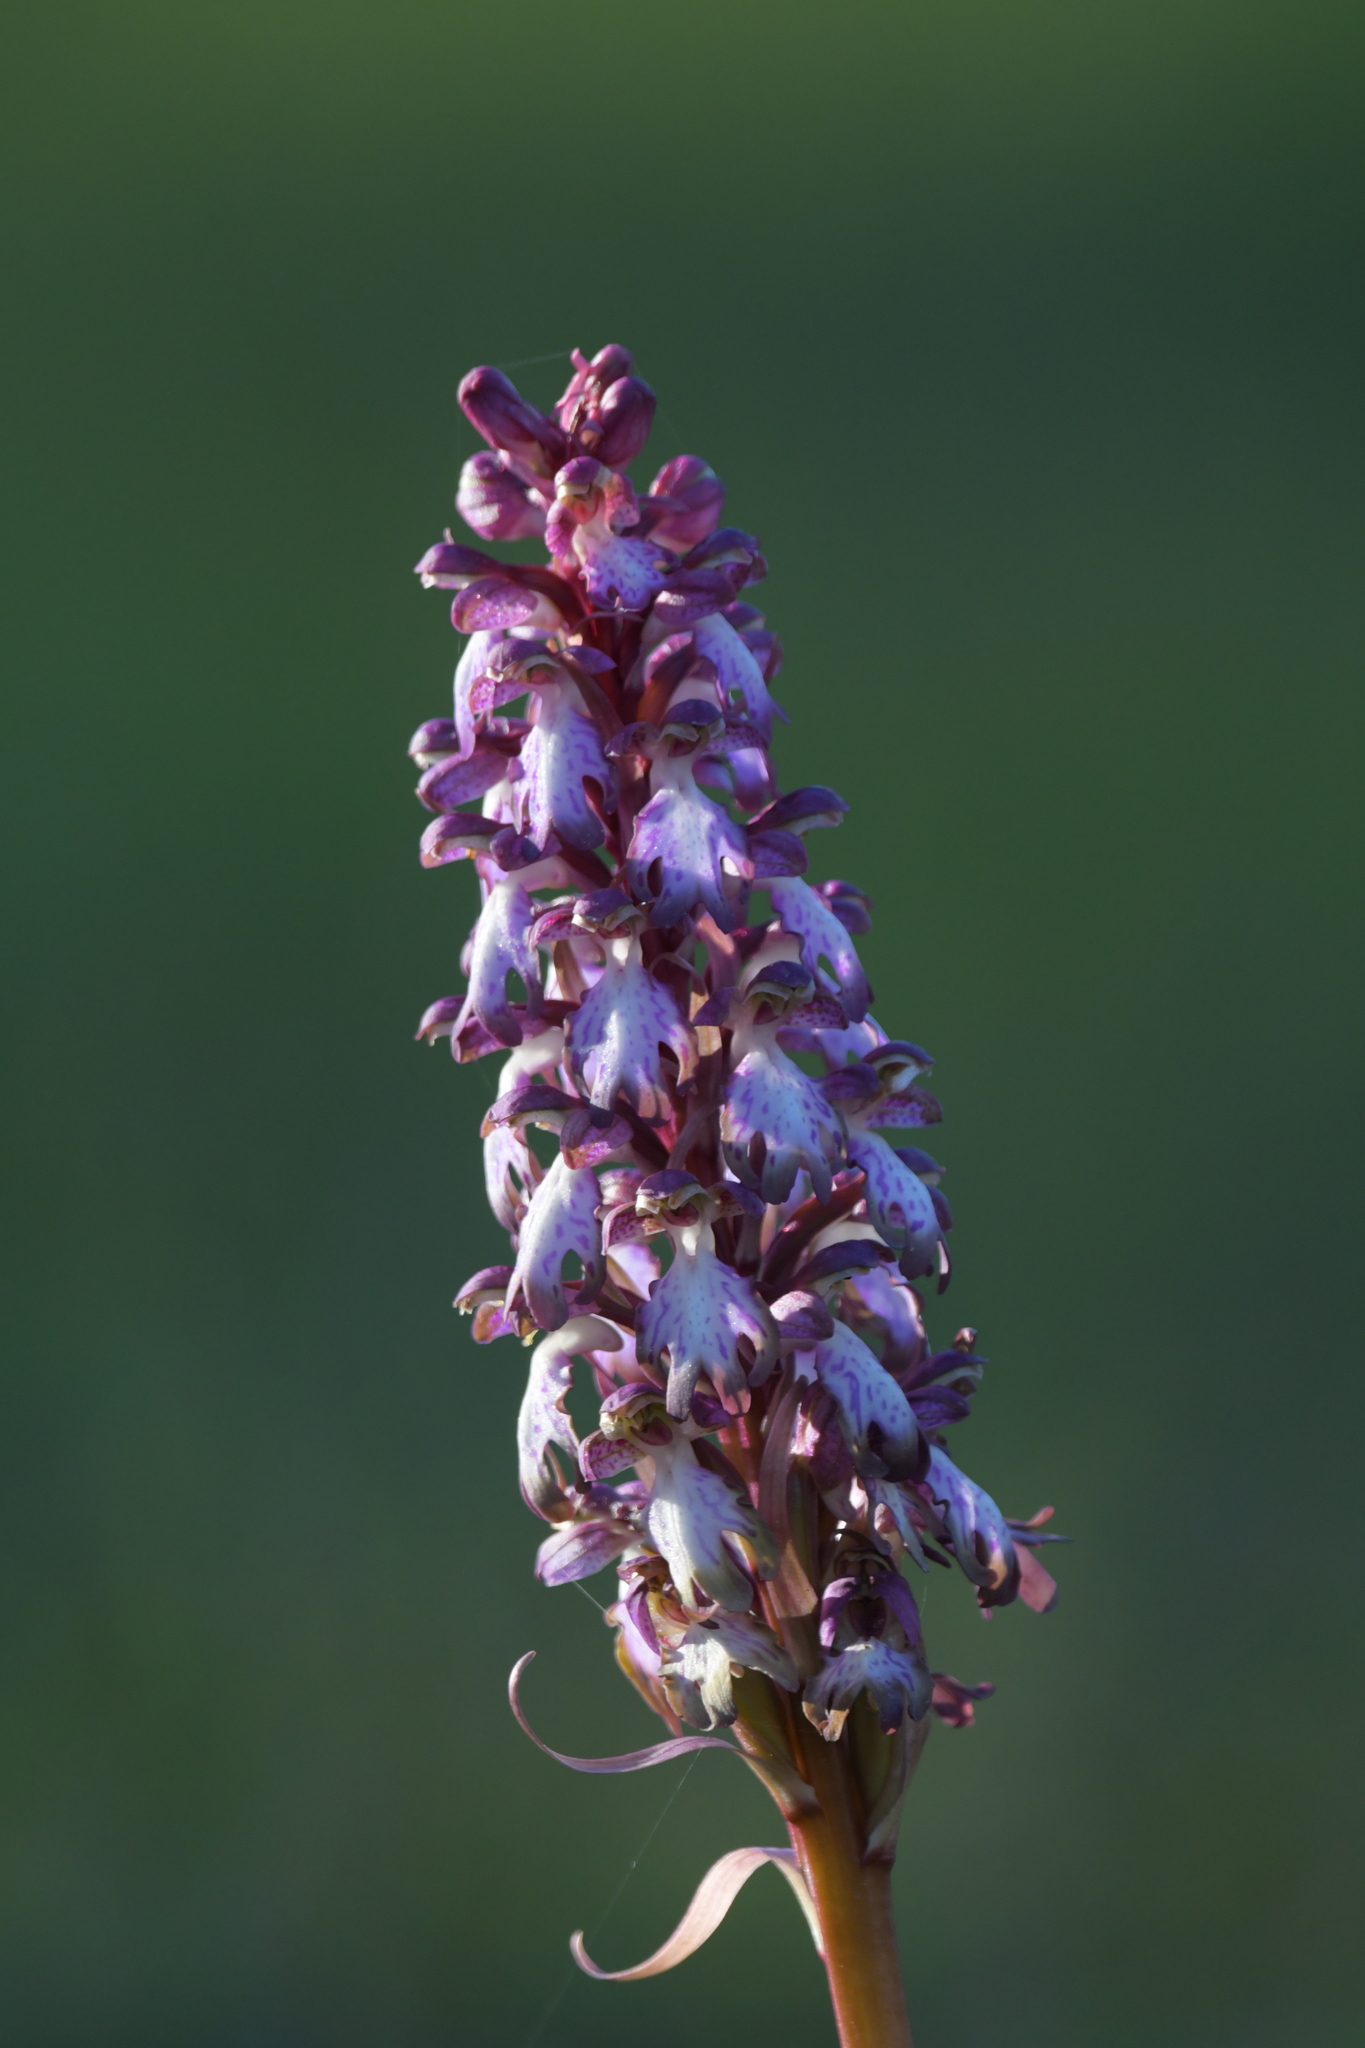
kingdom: Plantae
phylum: Tracheophyta
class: Liliopsida
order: Asparagales
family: Orchidaceae
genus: Himantoglossum
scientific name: Himantoglossum robertianum
